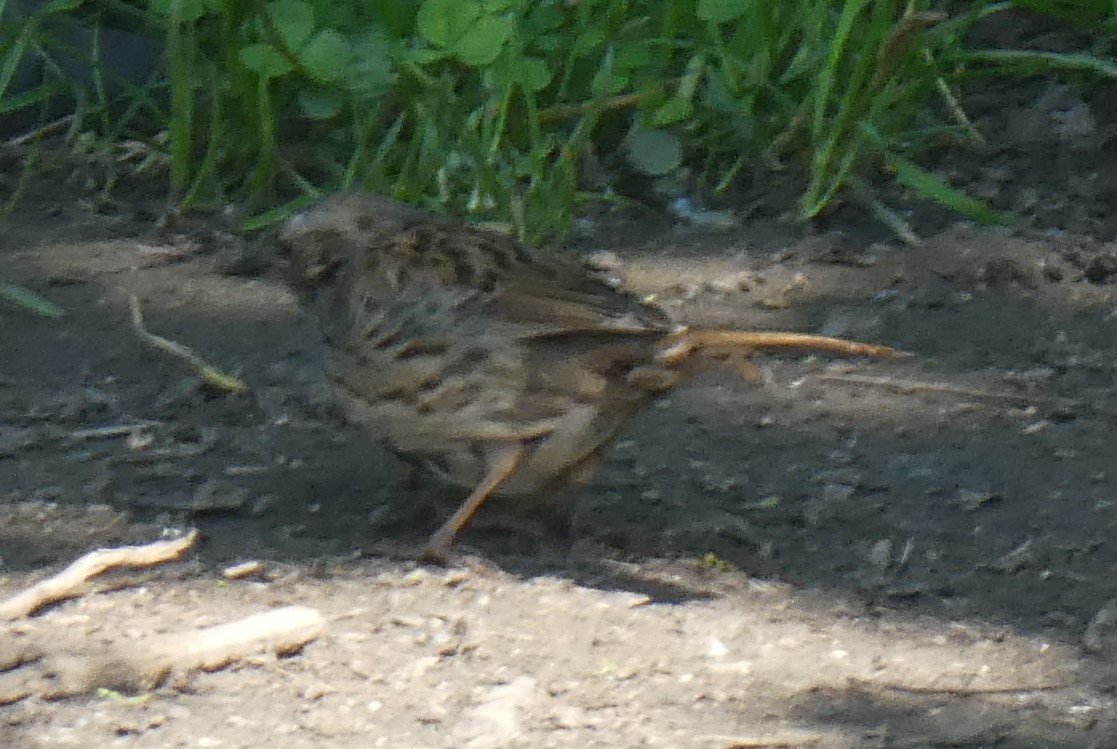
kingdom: Animalia
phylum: Chordata
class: Aves
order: Passeriformes
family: Prunellidae
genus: Prunella
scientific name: Prunella modularis
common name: Dunnock
